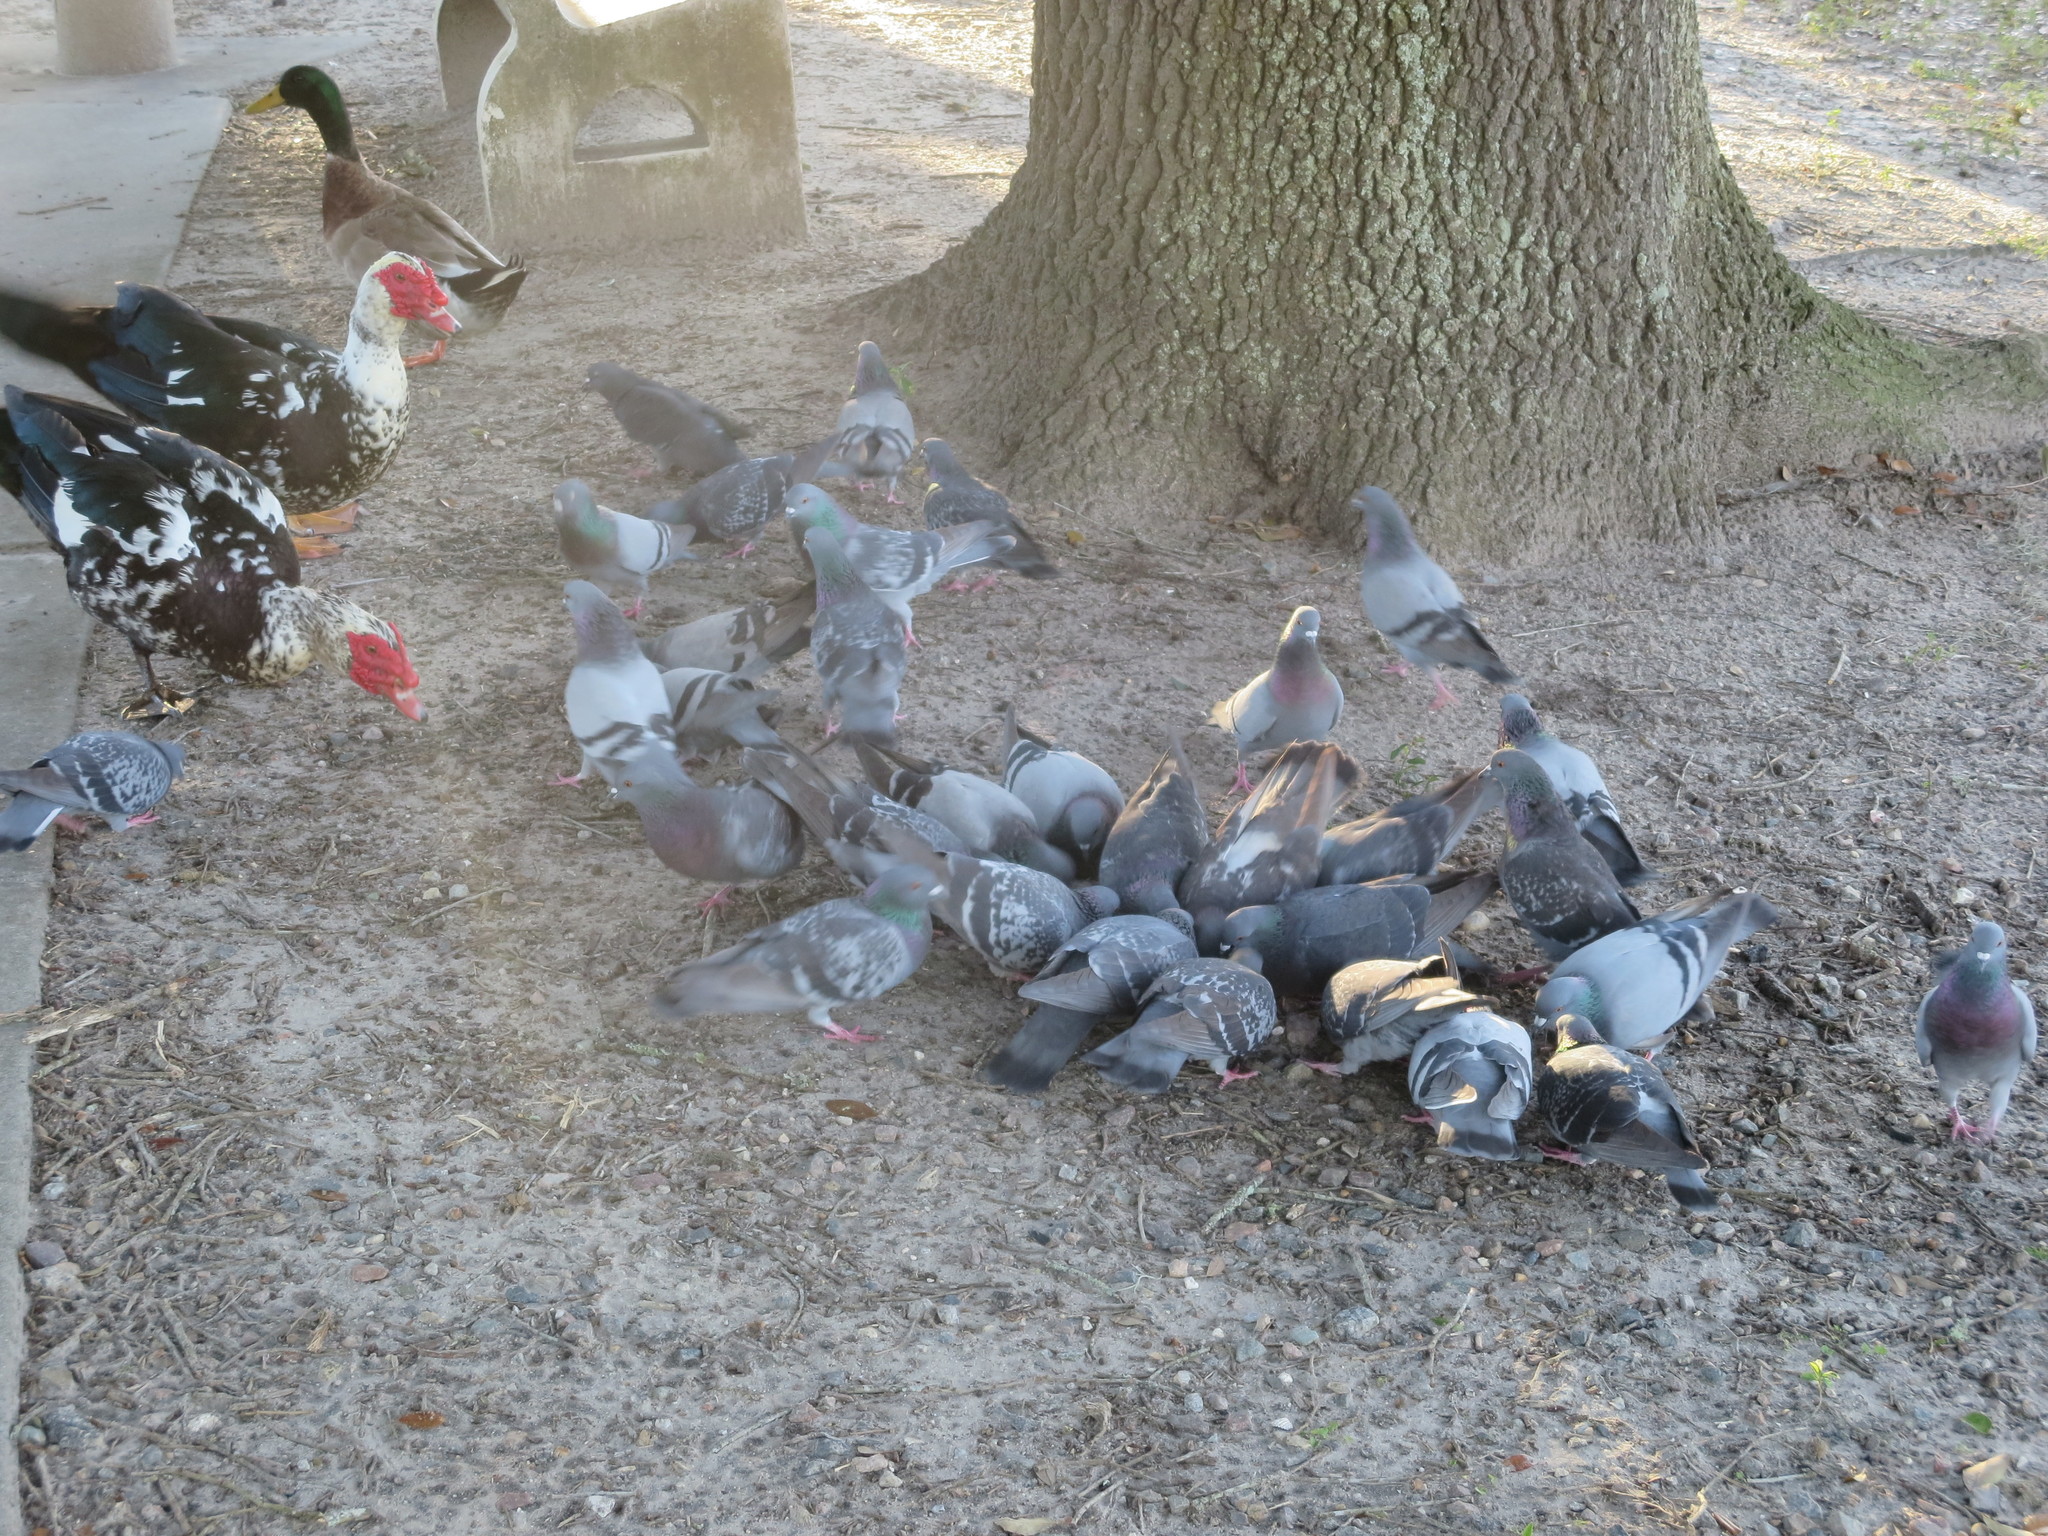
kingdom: Animalia
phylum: Chordata
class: Aves
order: Anseriformes
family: Anatidae
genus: Anas
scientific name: Anas platyrhynchos
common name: Mallard
